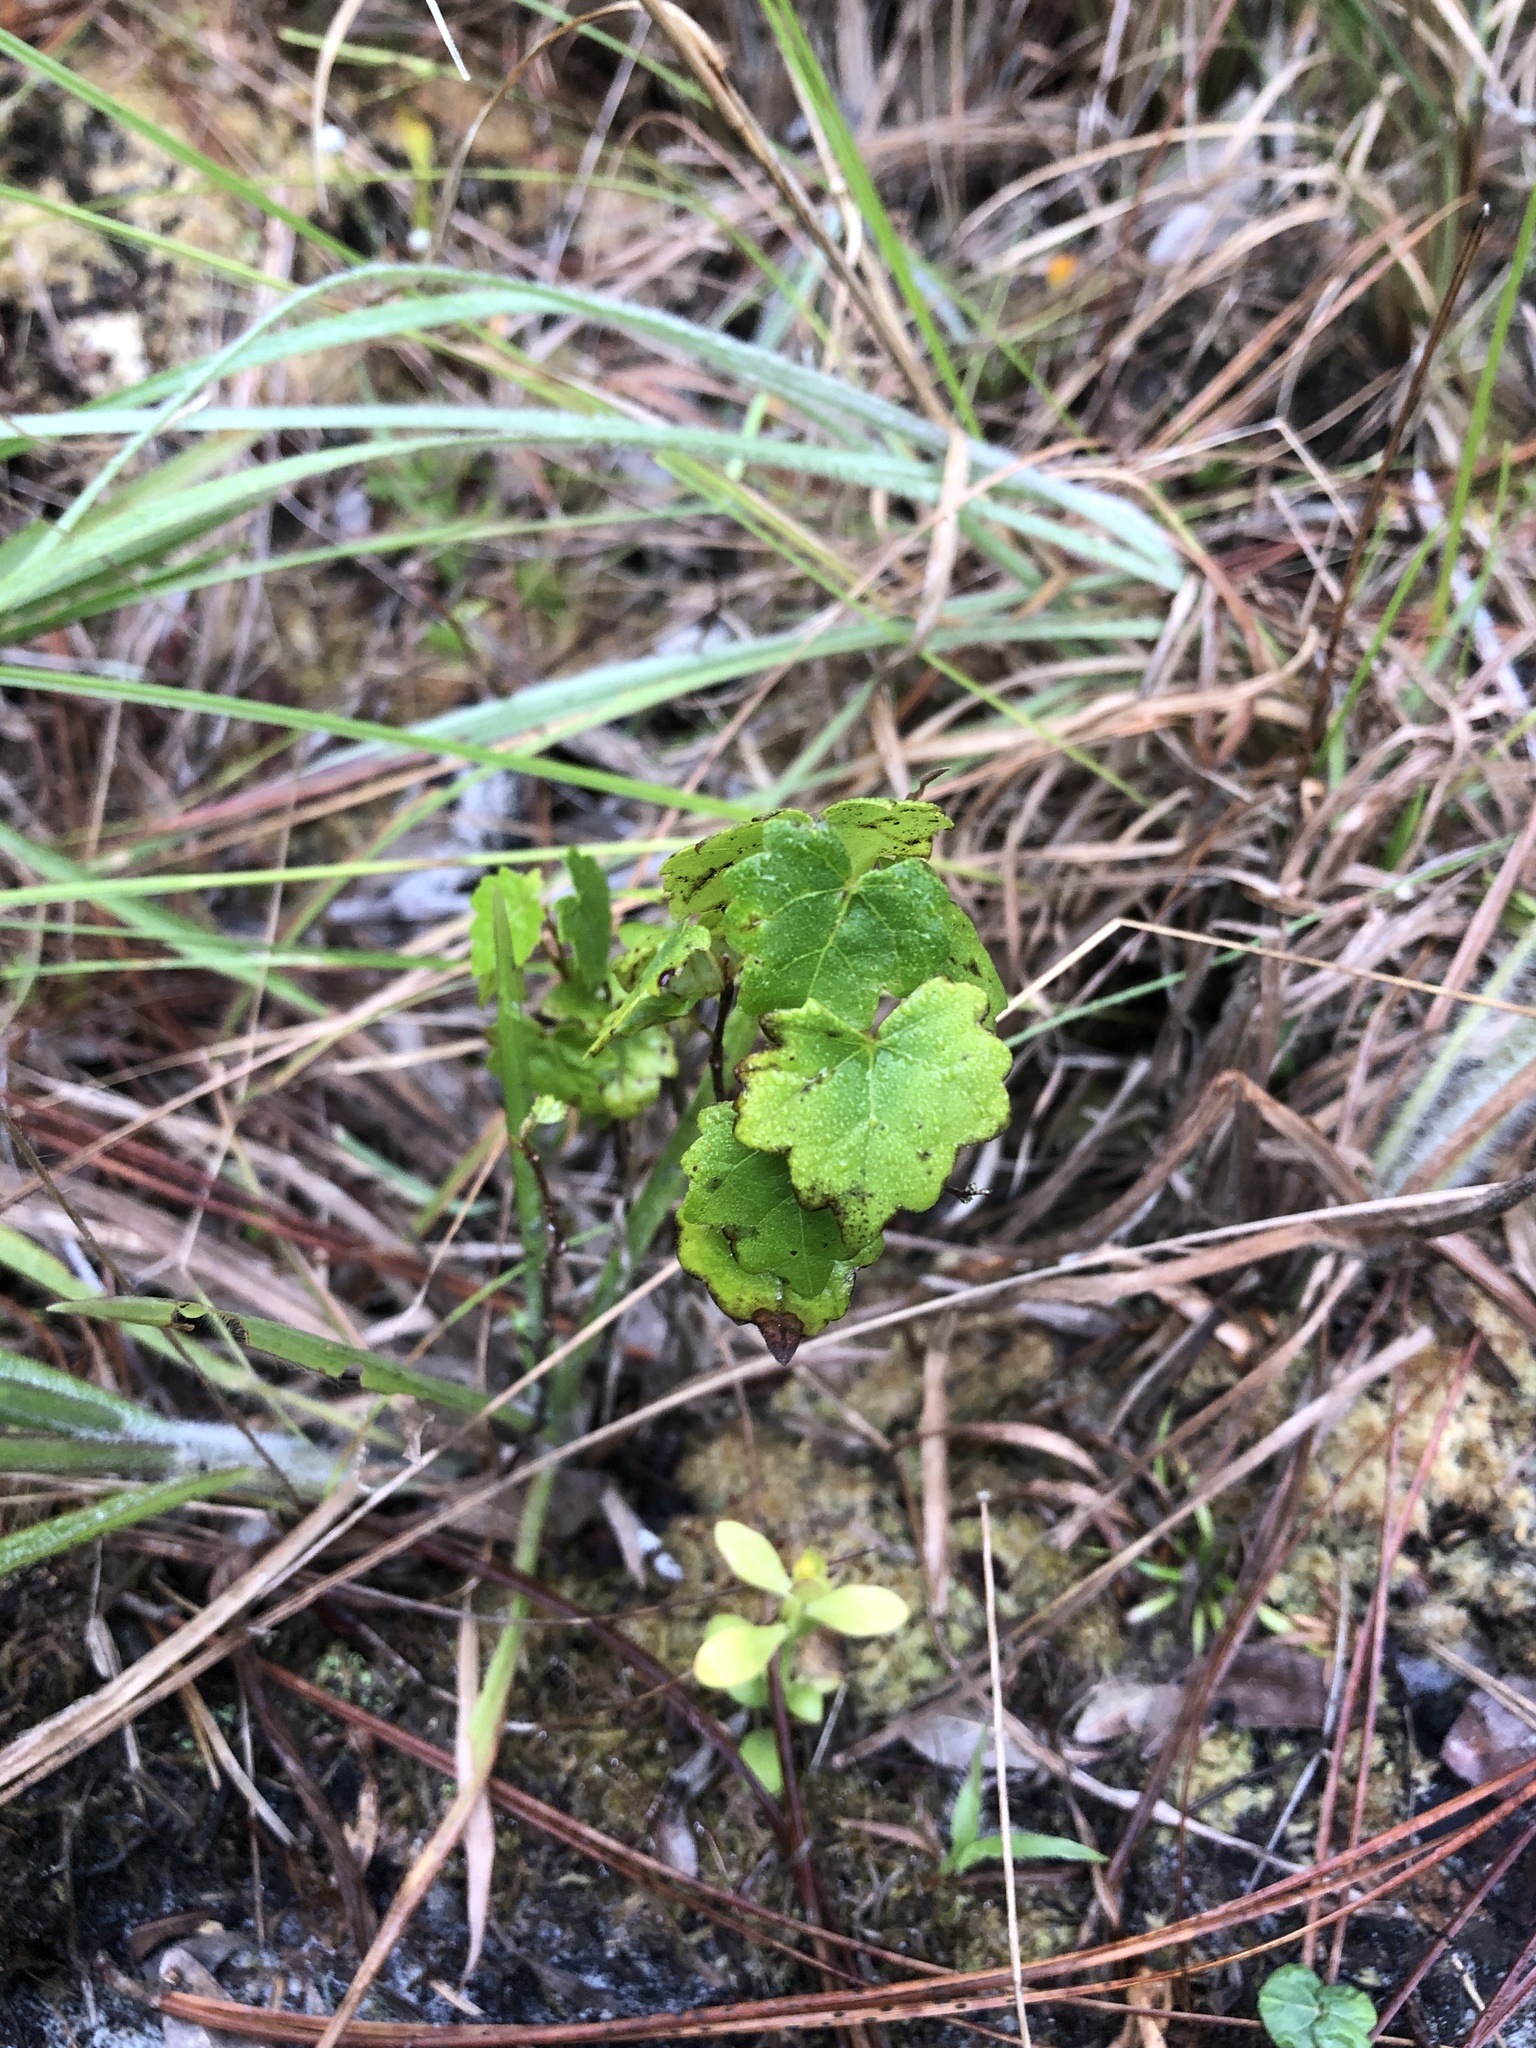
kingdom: Plantae
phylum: Tracheophyta
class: Magnoliopsida
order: Sapindales
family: Sapindaceae
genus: Acer
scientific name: Acer rubrum
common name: Red maple
